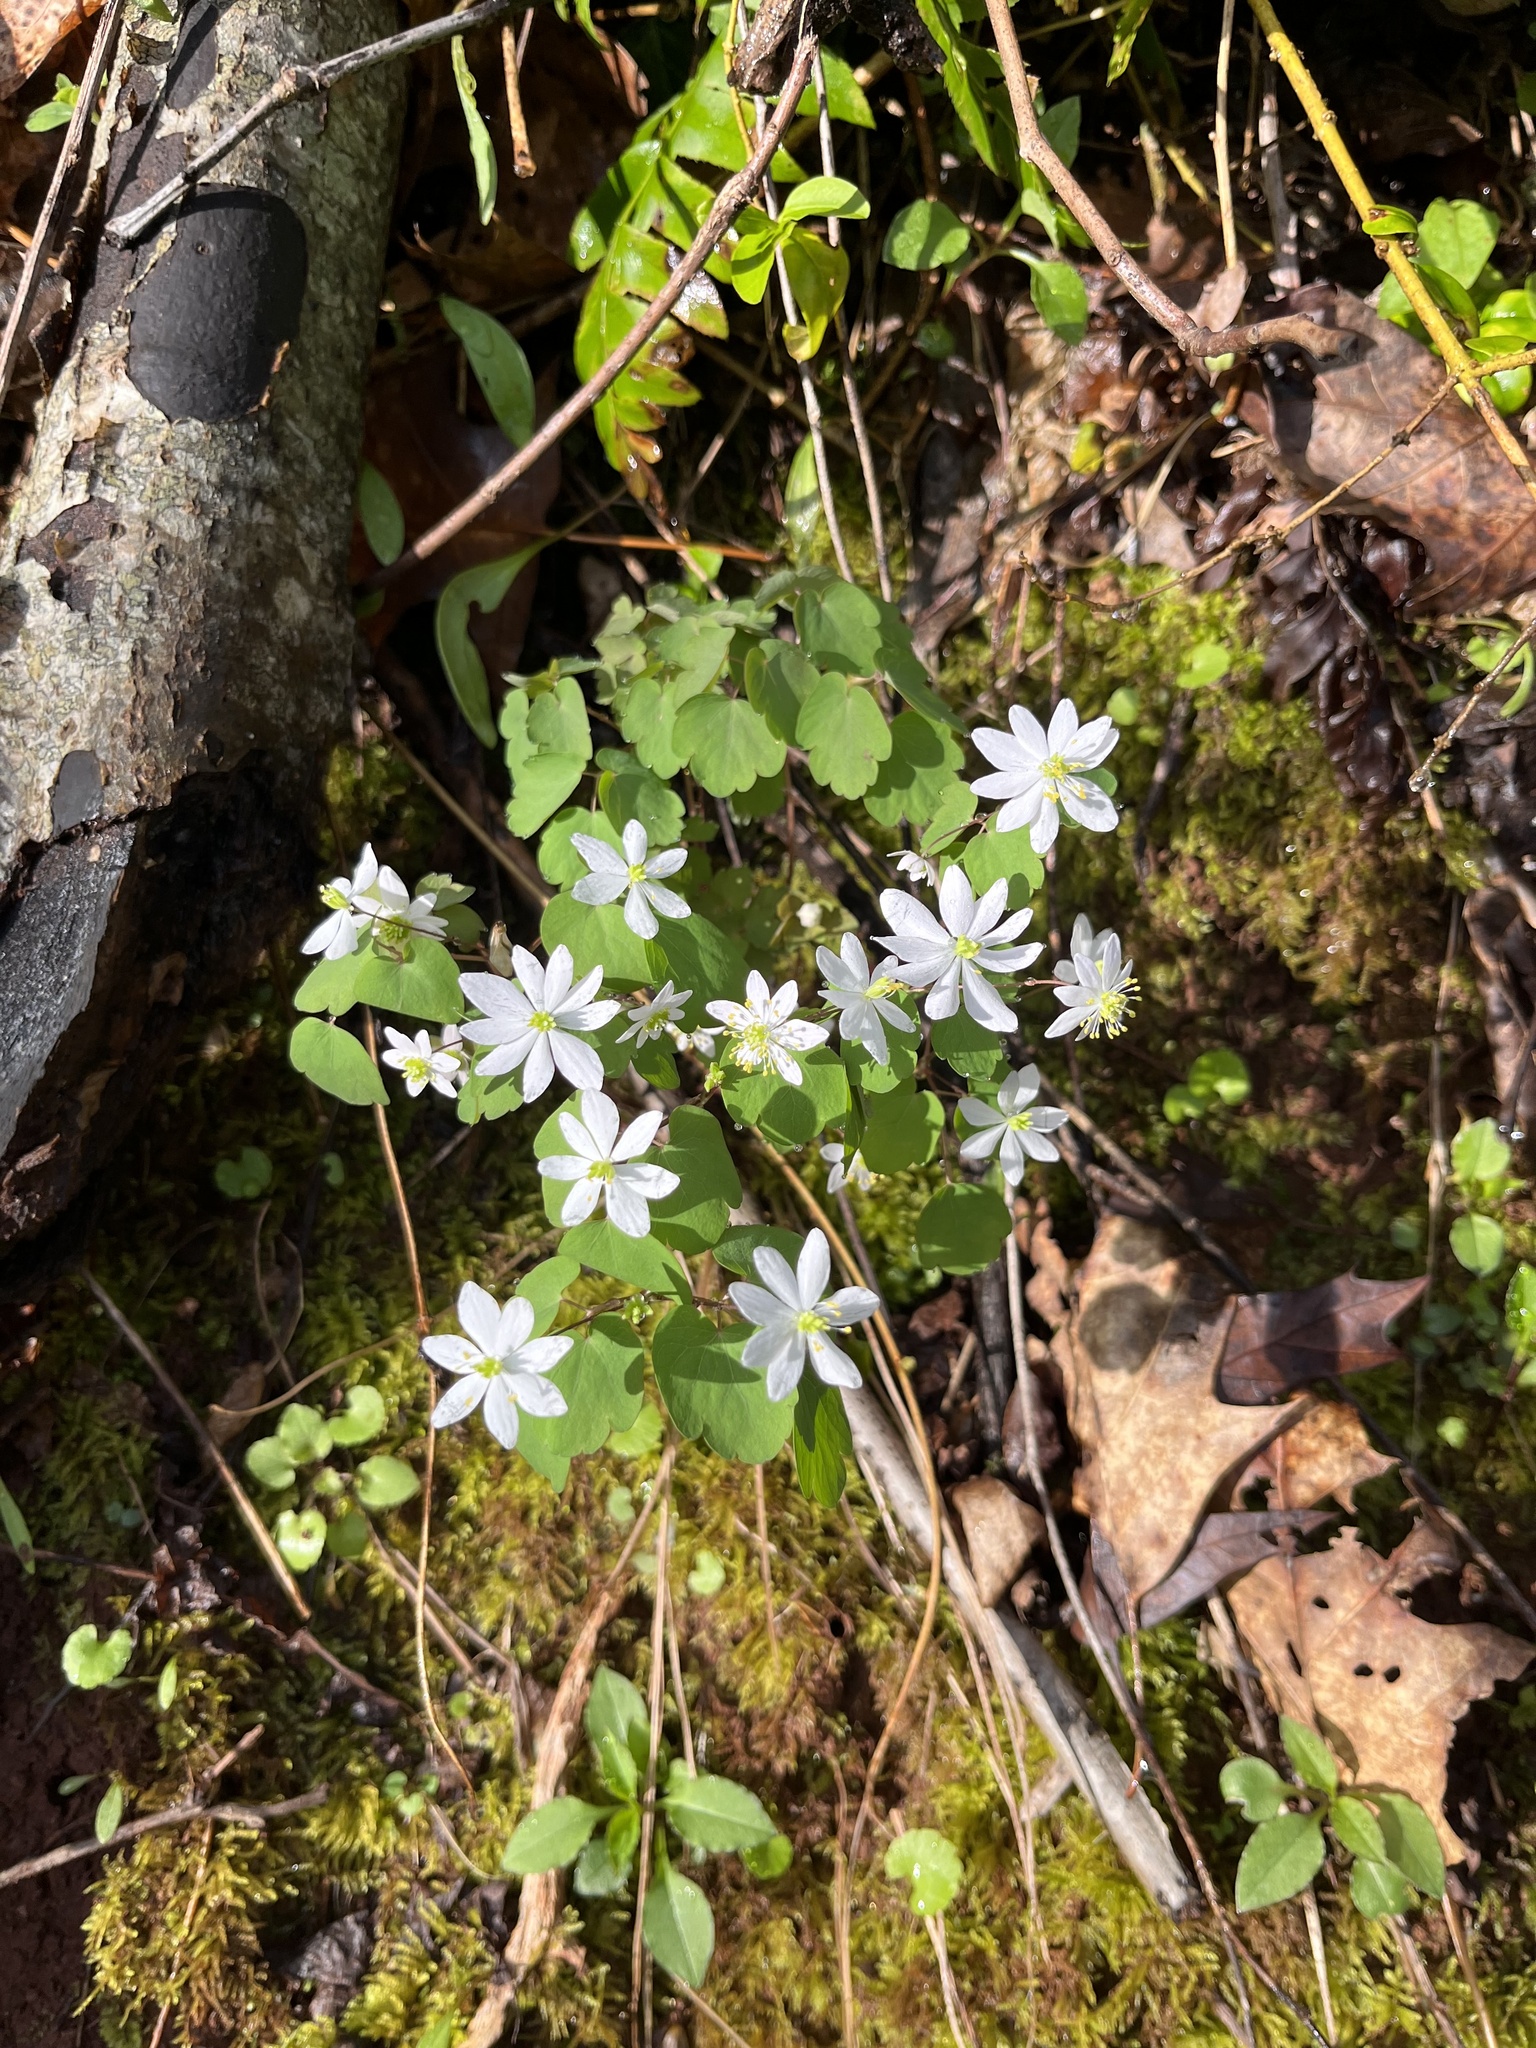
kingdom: Plantae
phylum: Tracheophyta
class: Magnoliopsida
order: Ranunculales
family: Ranunculaceae
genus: Thalictrum
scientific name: Thalictrum thalictroides
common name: Rue-anemone
